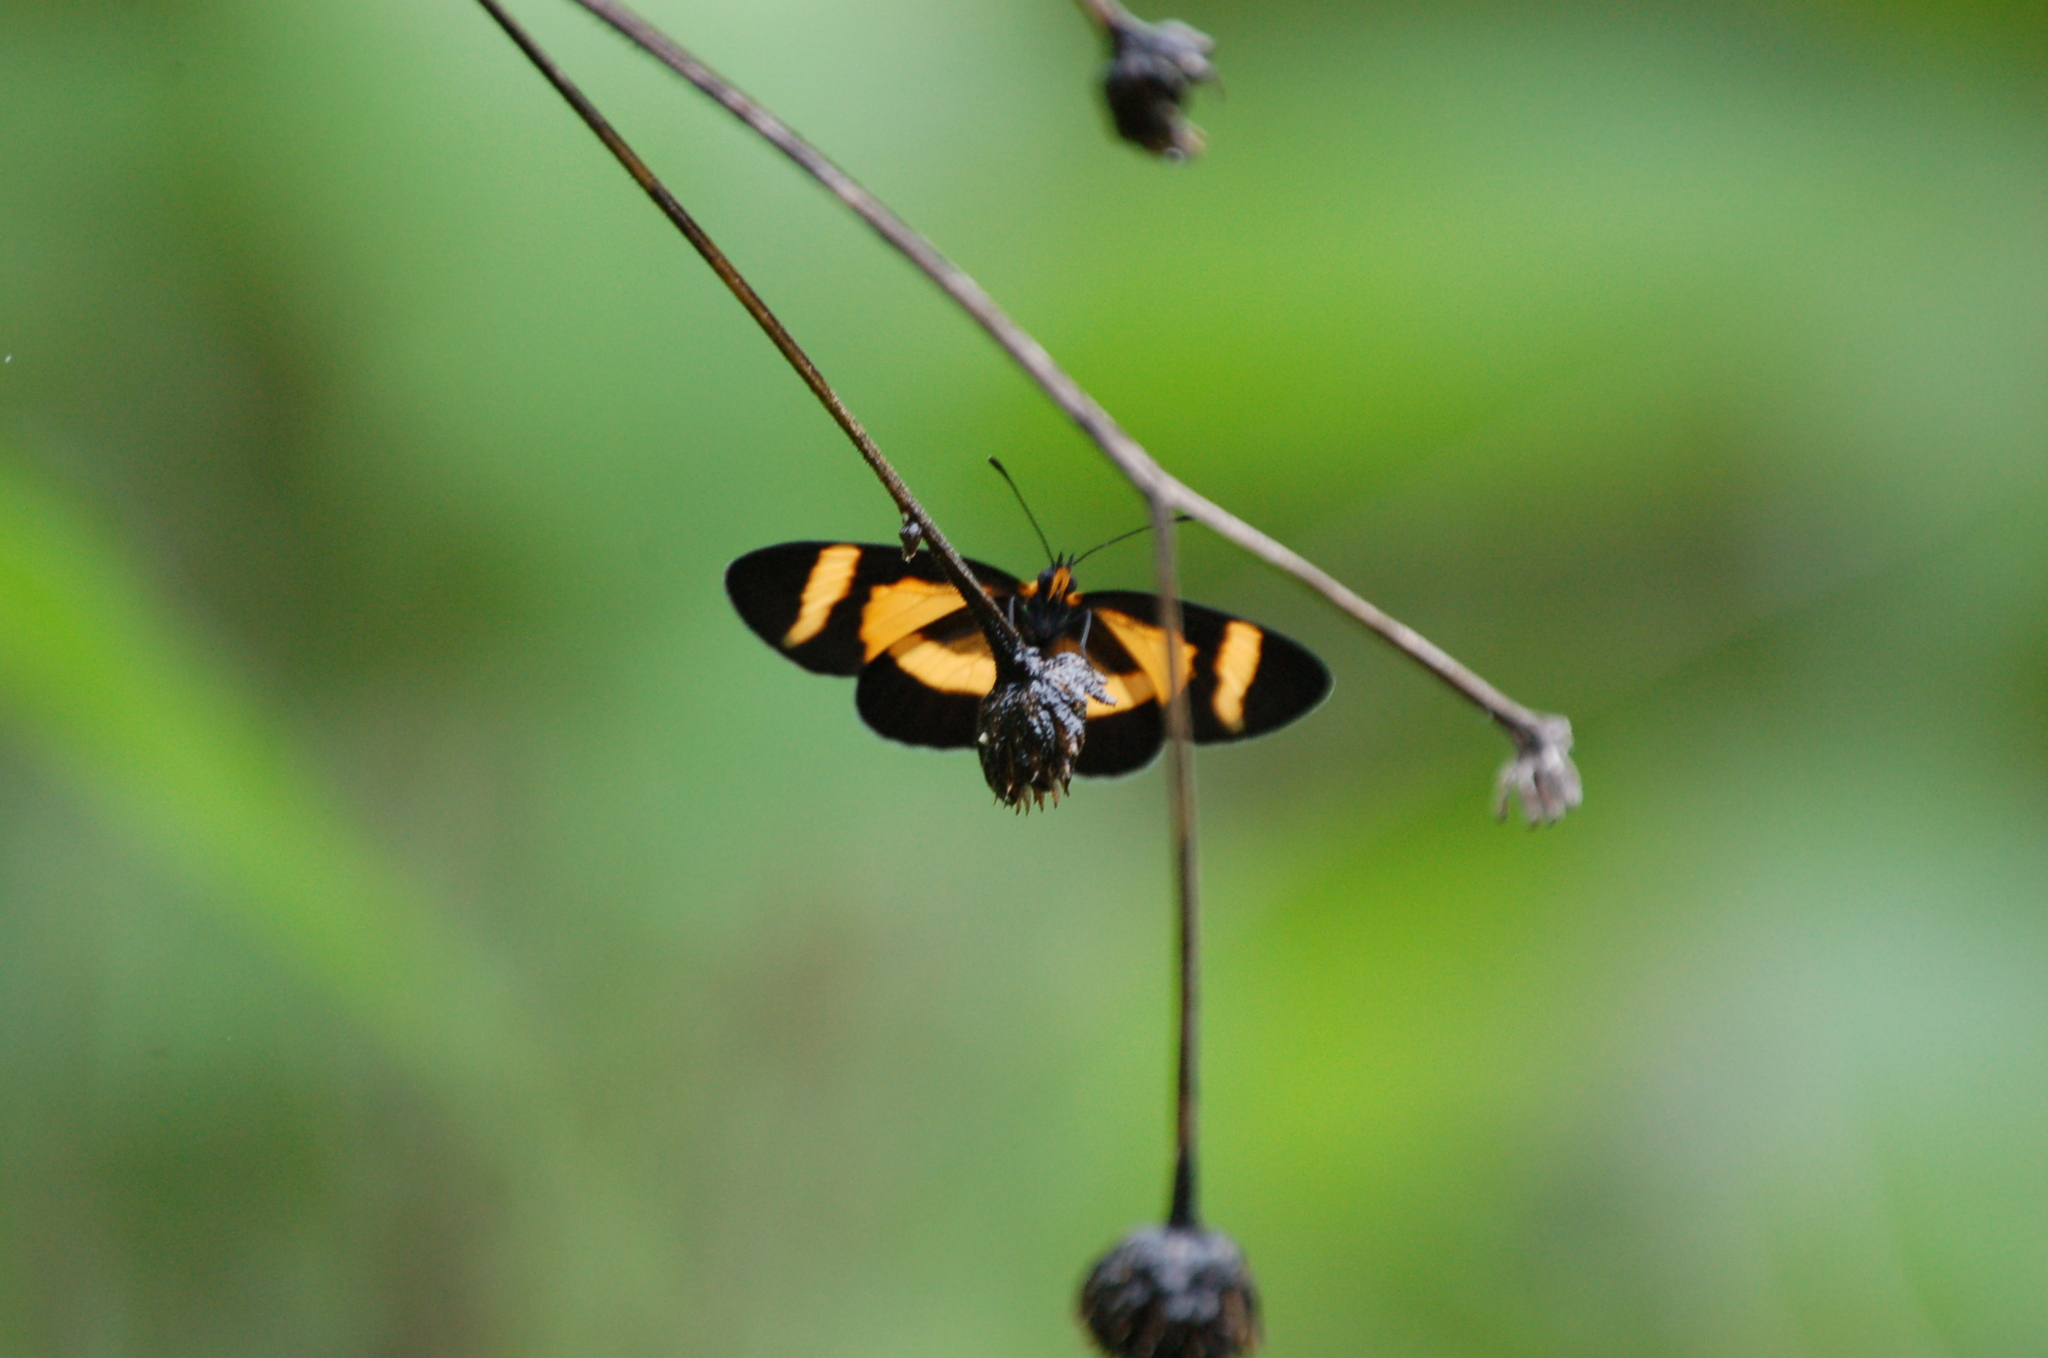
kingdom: Animalia
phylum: Arthropoda
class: Insecta
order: Lepidoptera
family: Nymphalidae
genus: Microtia
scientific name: Microtia elva
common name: Elf
